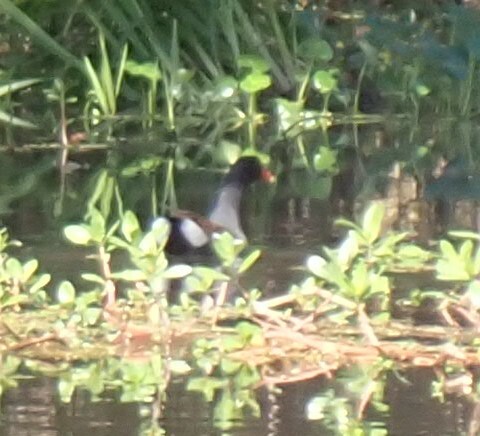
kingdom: Animalia
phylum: Chordata
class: Aves
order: Gruiformes
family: Rallidae
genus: Gallinula
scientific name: Gallinula chloropus
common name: Common moorhen
